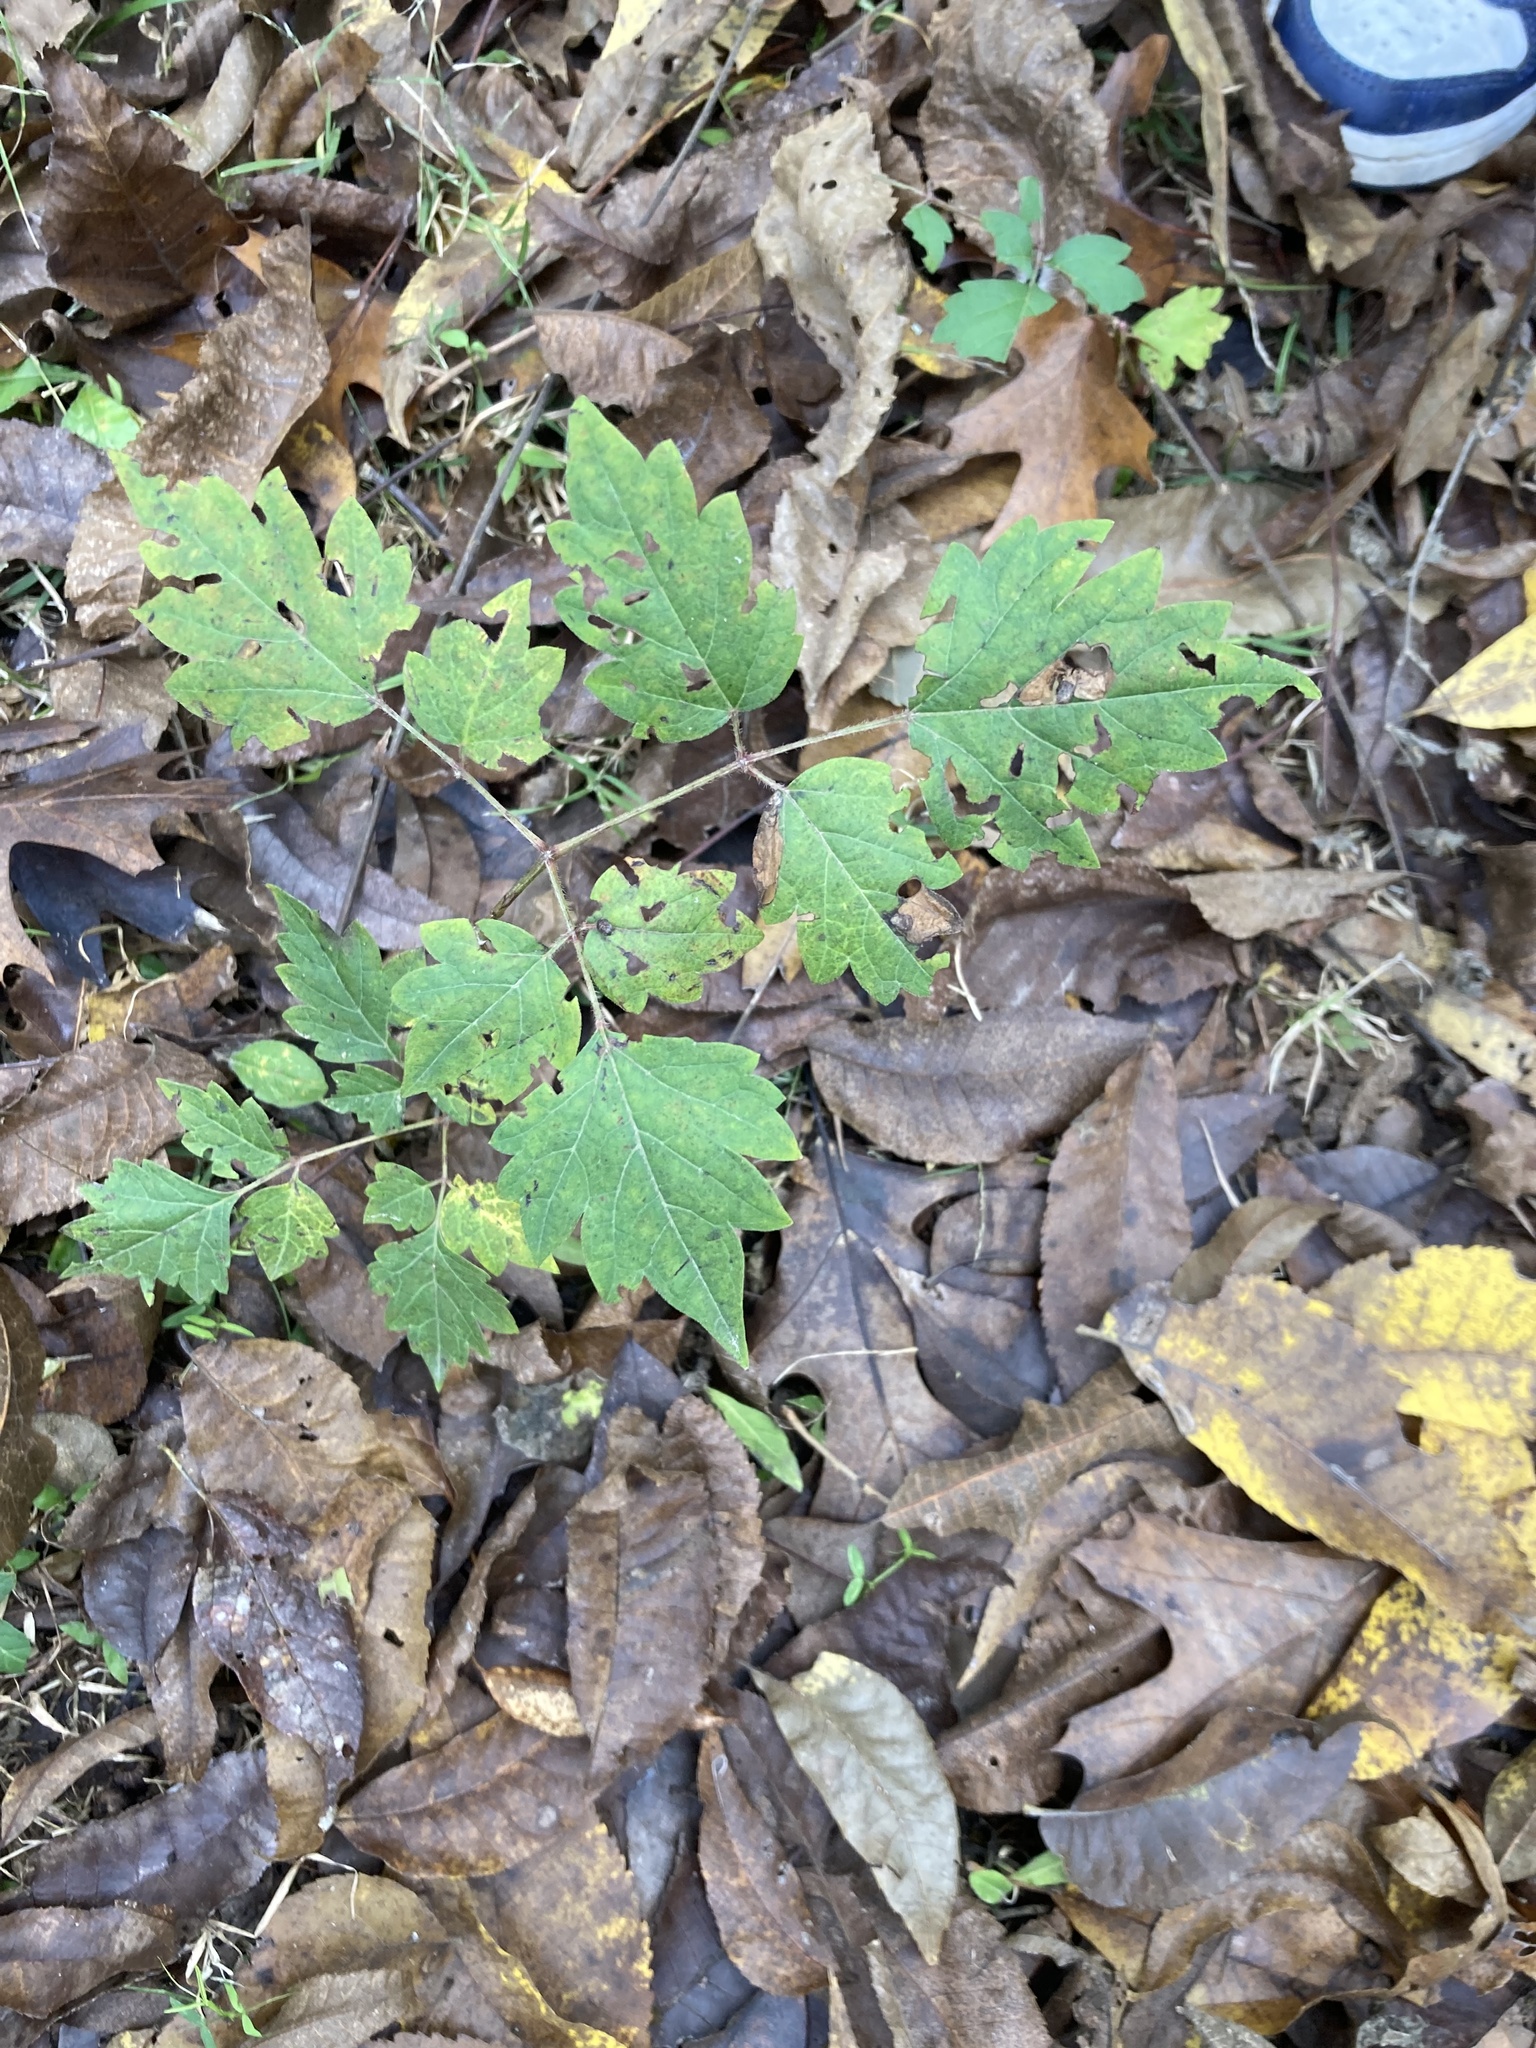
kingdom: Plantae
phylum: Tracheophyta
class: Magnoliopsida
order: Vitales
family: Vitaceae
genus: Nekemias
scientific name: Nekemias arborea
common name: Peppervine
